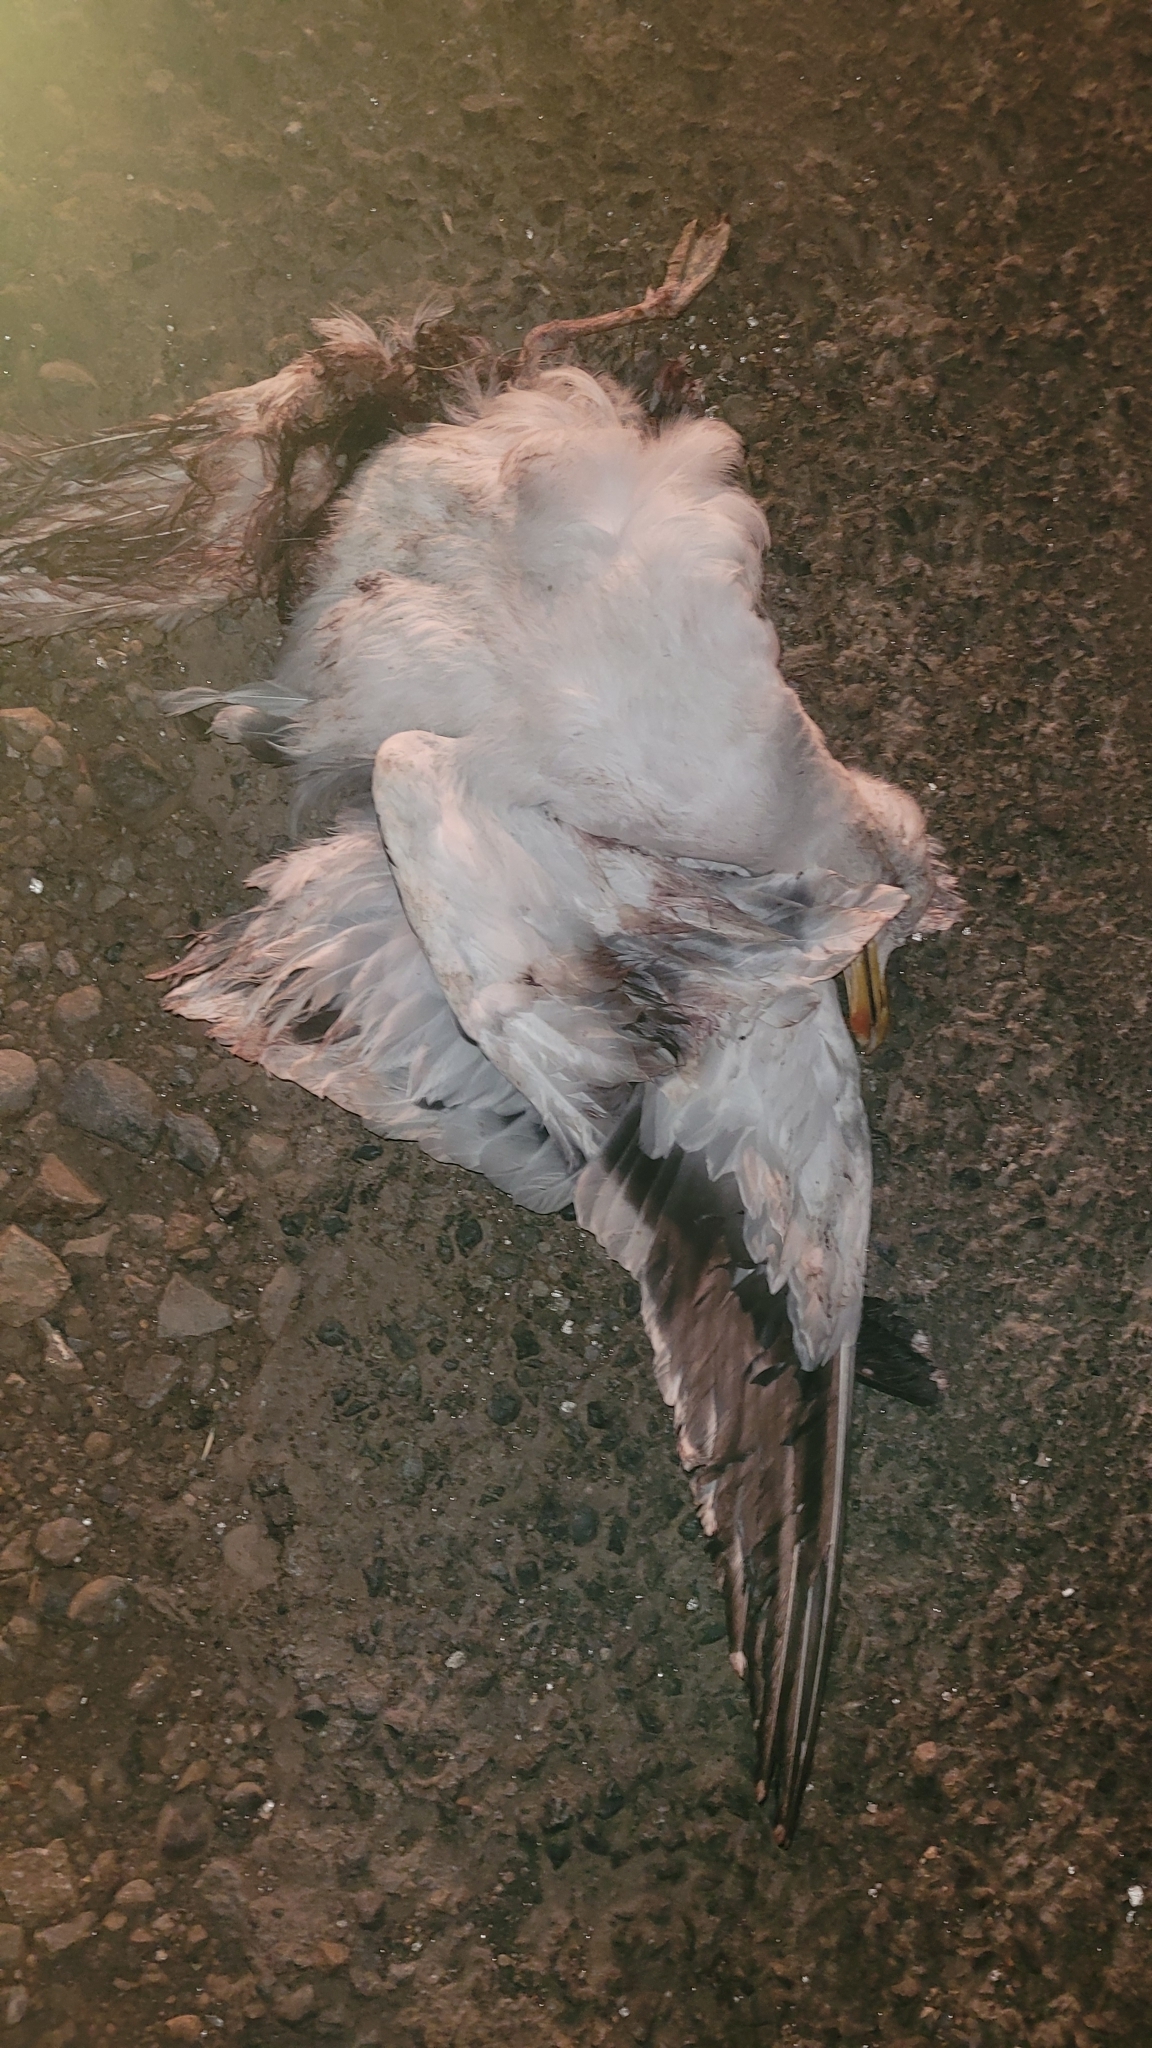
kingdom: Animalia
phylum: Chordata
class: Aves
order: Charadriiformes
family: Laridae
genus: Larus
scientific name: Larus dominicanus
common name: Kelp gull
